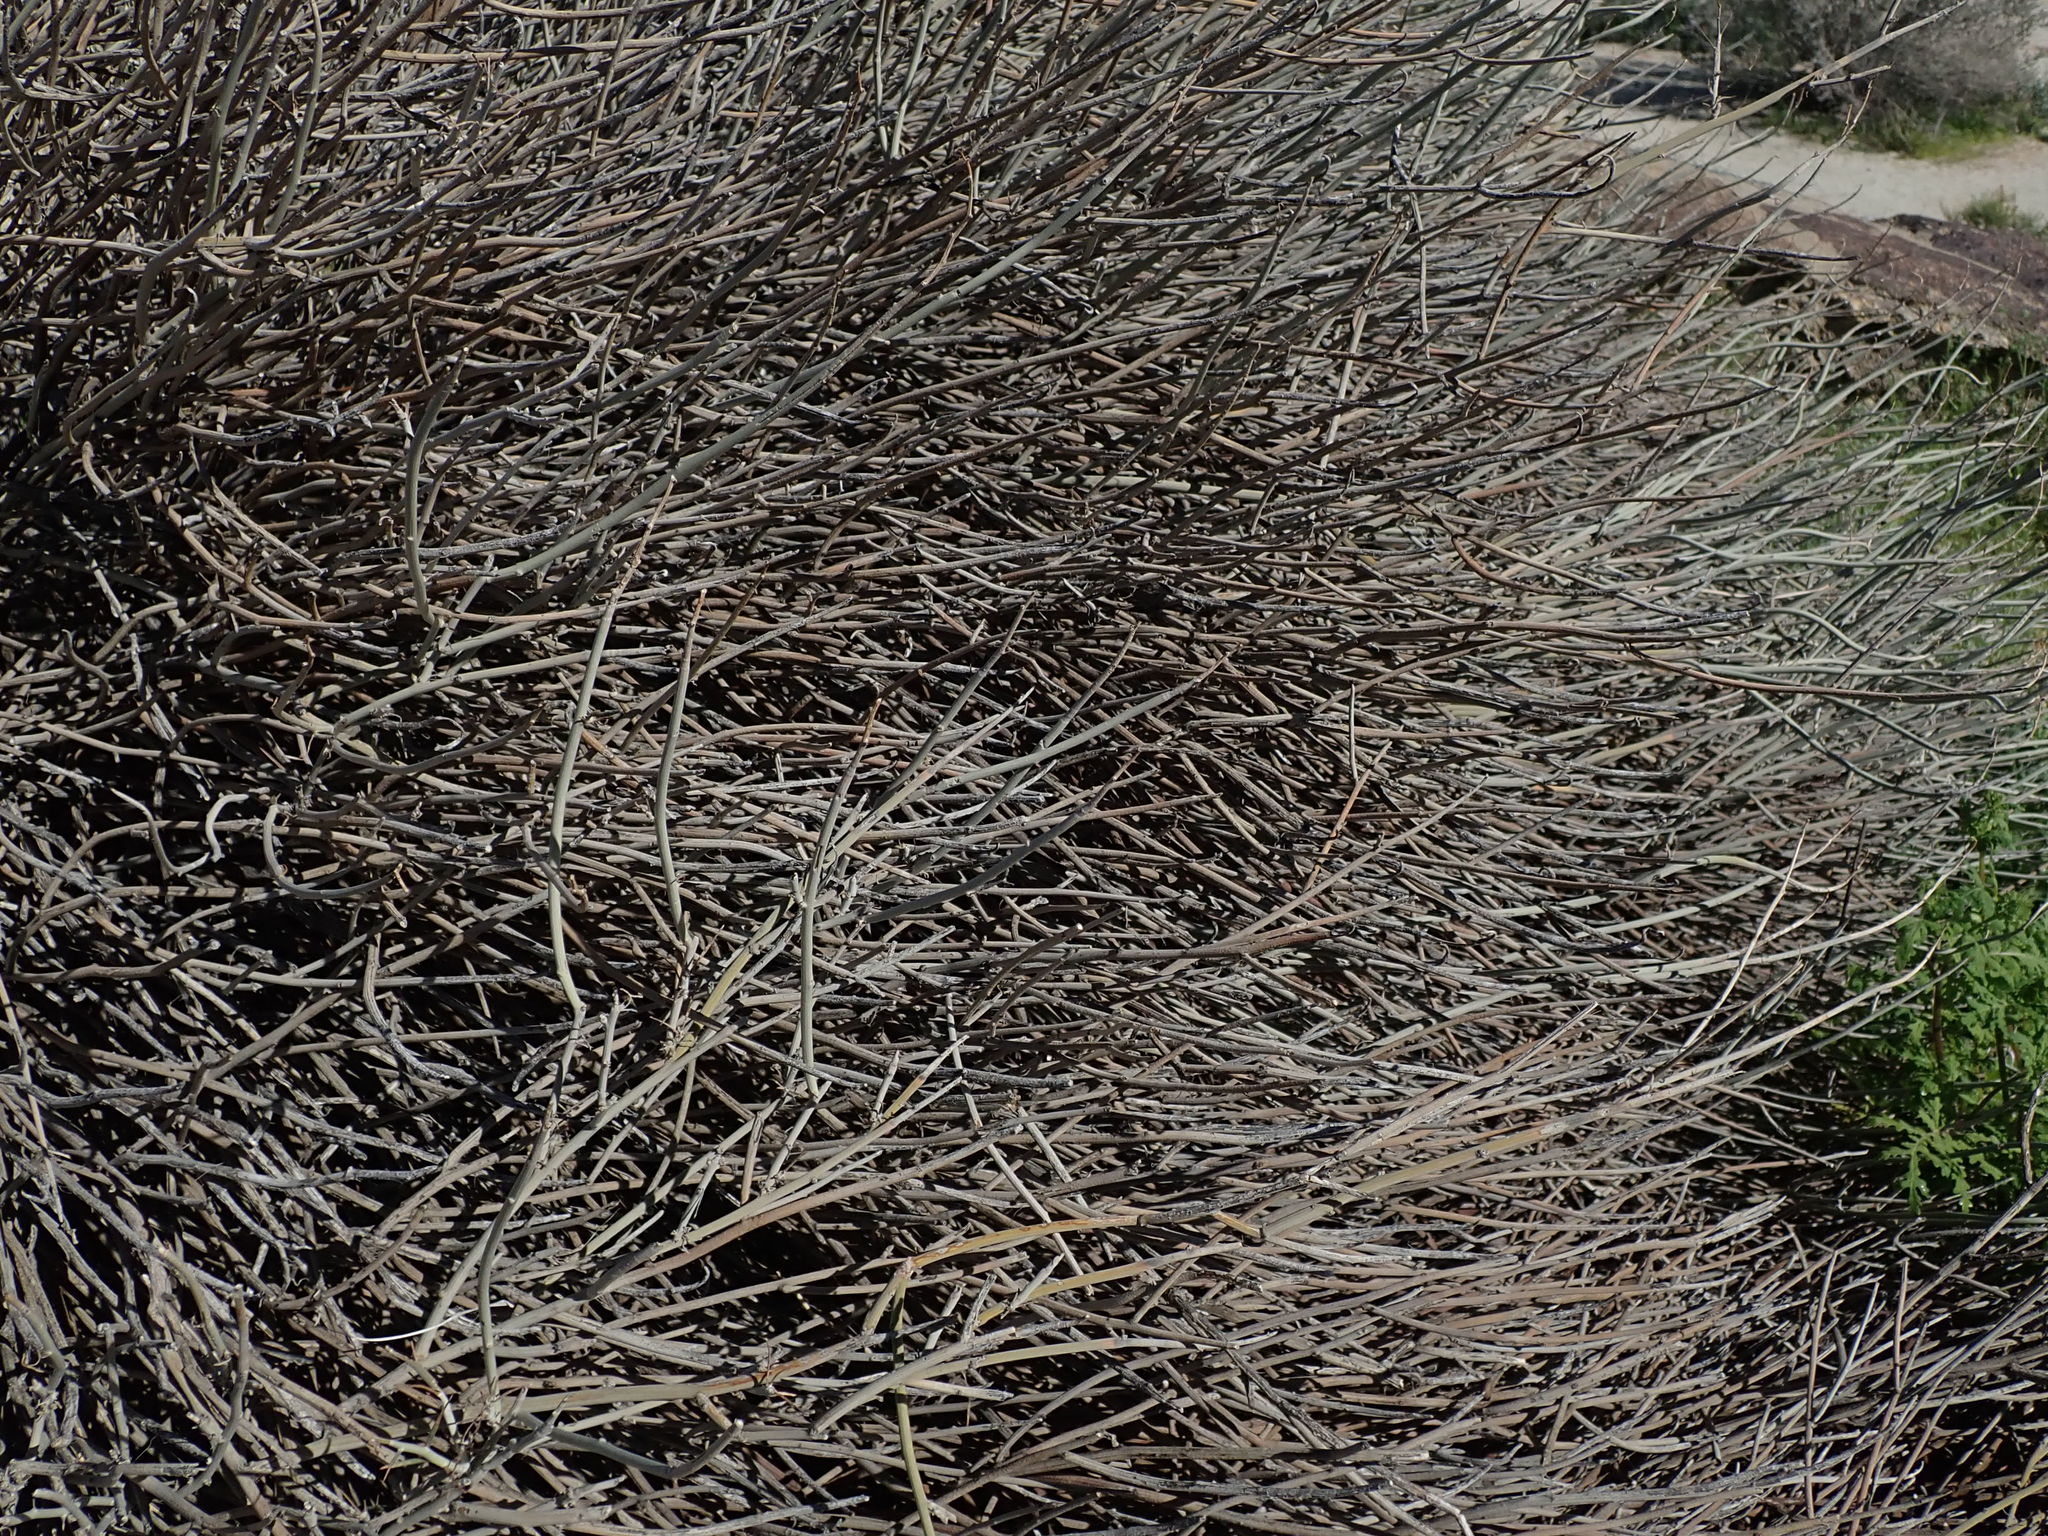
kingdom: Plantae
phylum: Tracheophyta
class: Magnoliopsida
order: Fabales
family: Fabaceae
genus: Senna
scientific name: Senna armata
